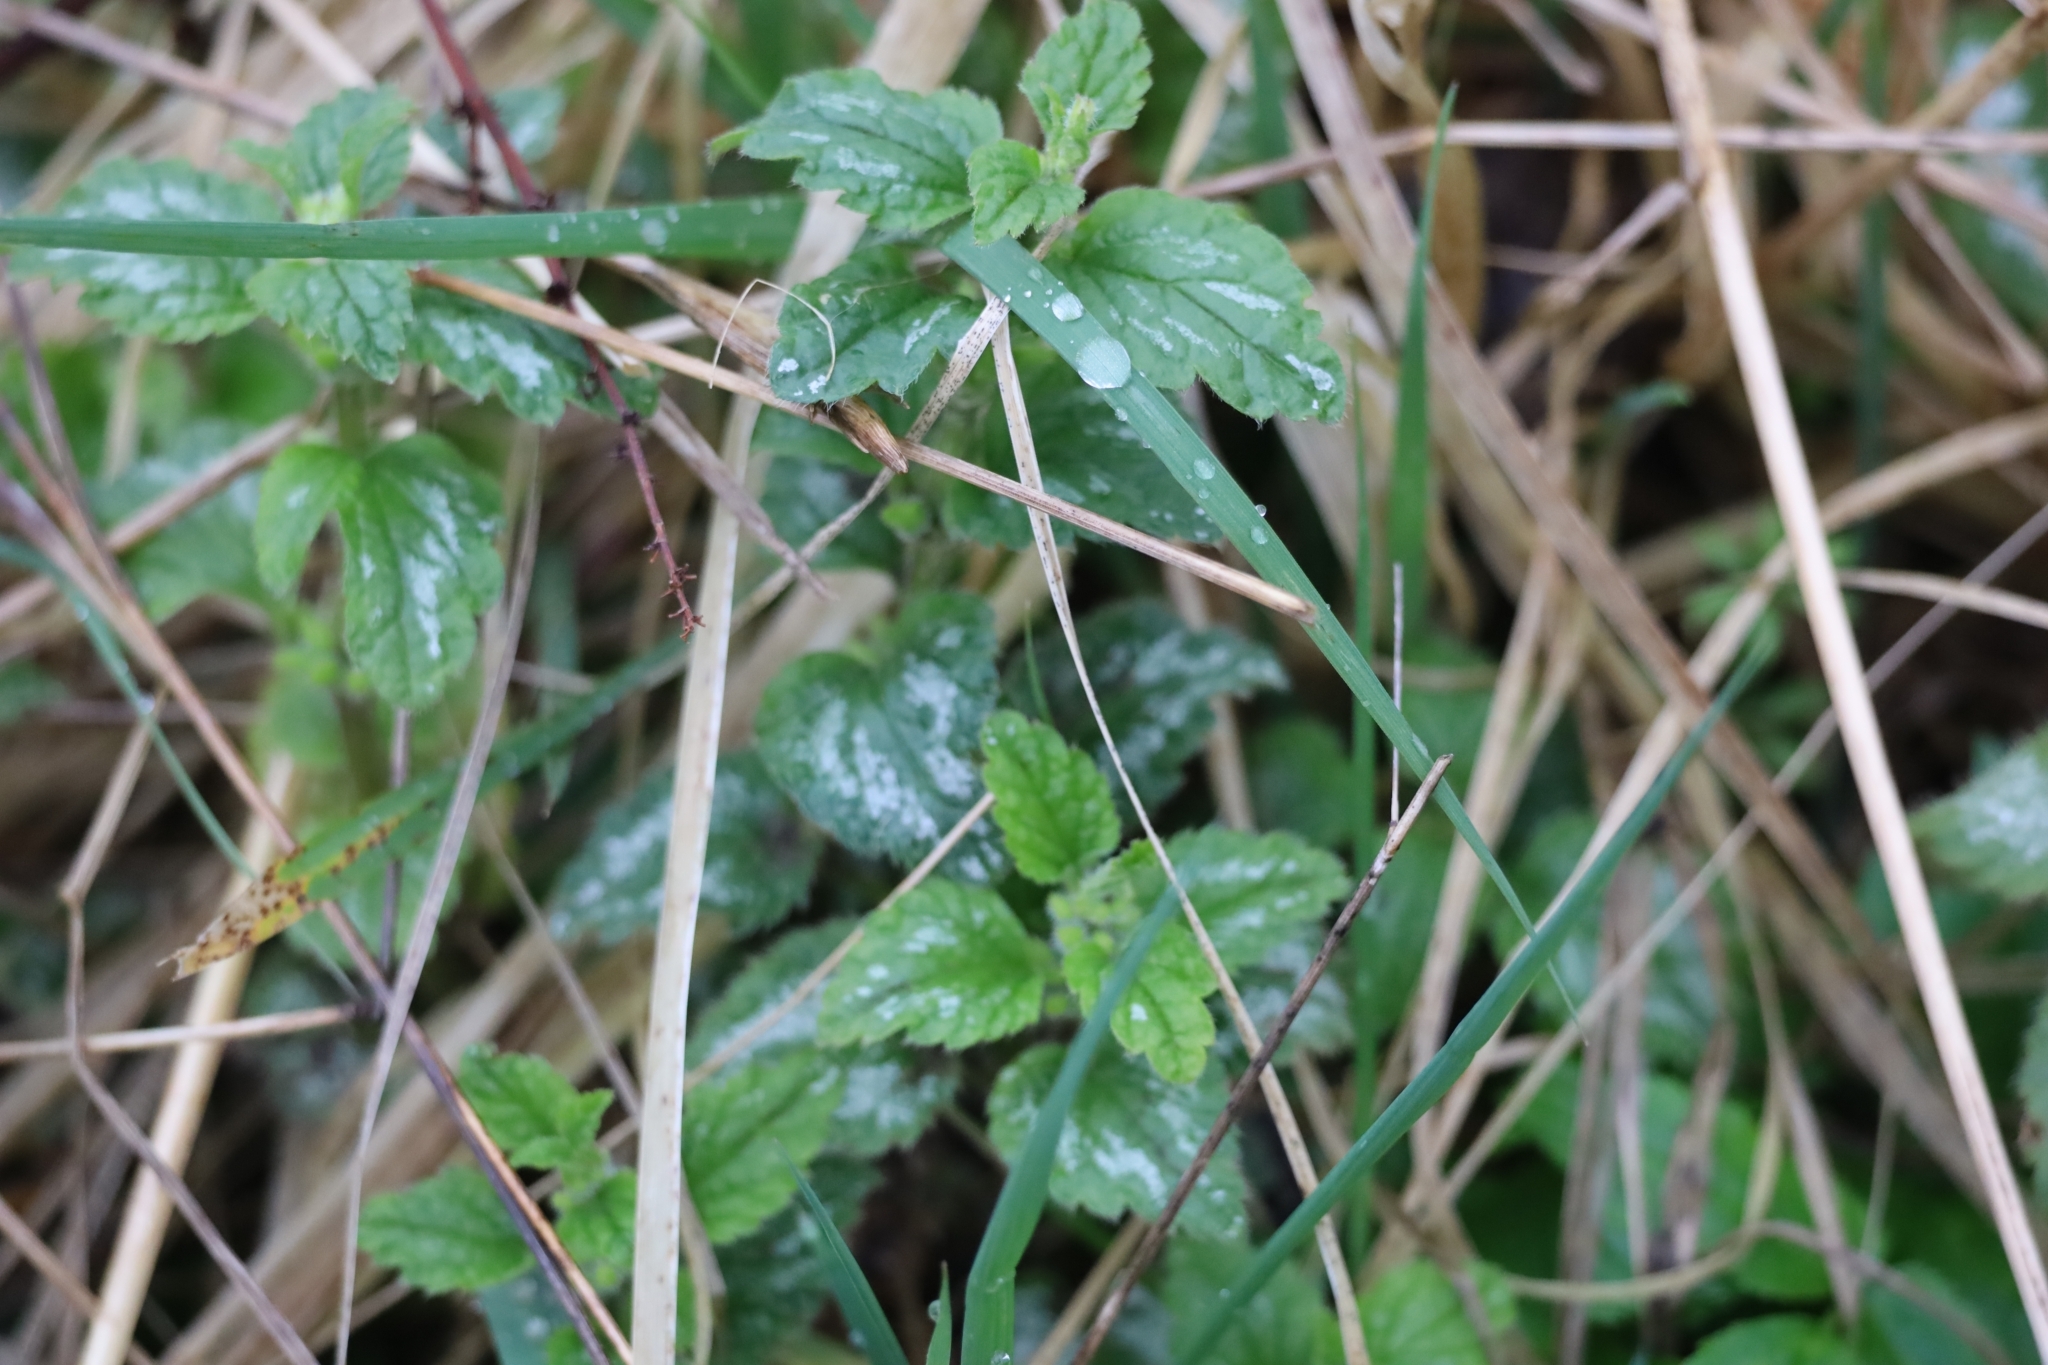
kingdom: Plantae
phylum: Tracheophyta
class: Magnoliopsida
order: Lamiales
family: Lamiaceae
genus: Lamium
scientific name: Lamium galeobdolon
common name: Yellow archangel
